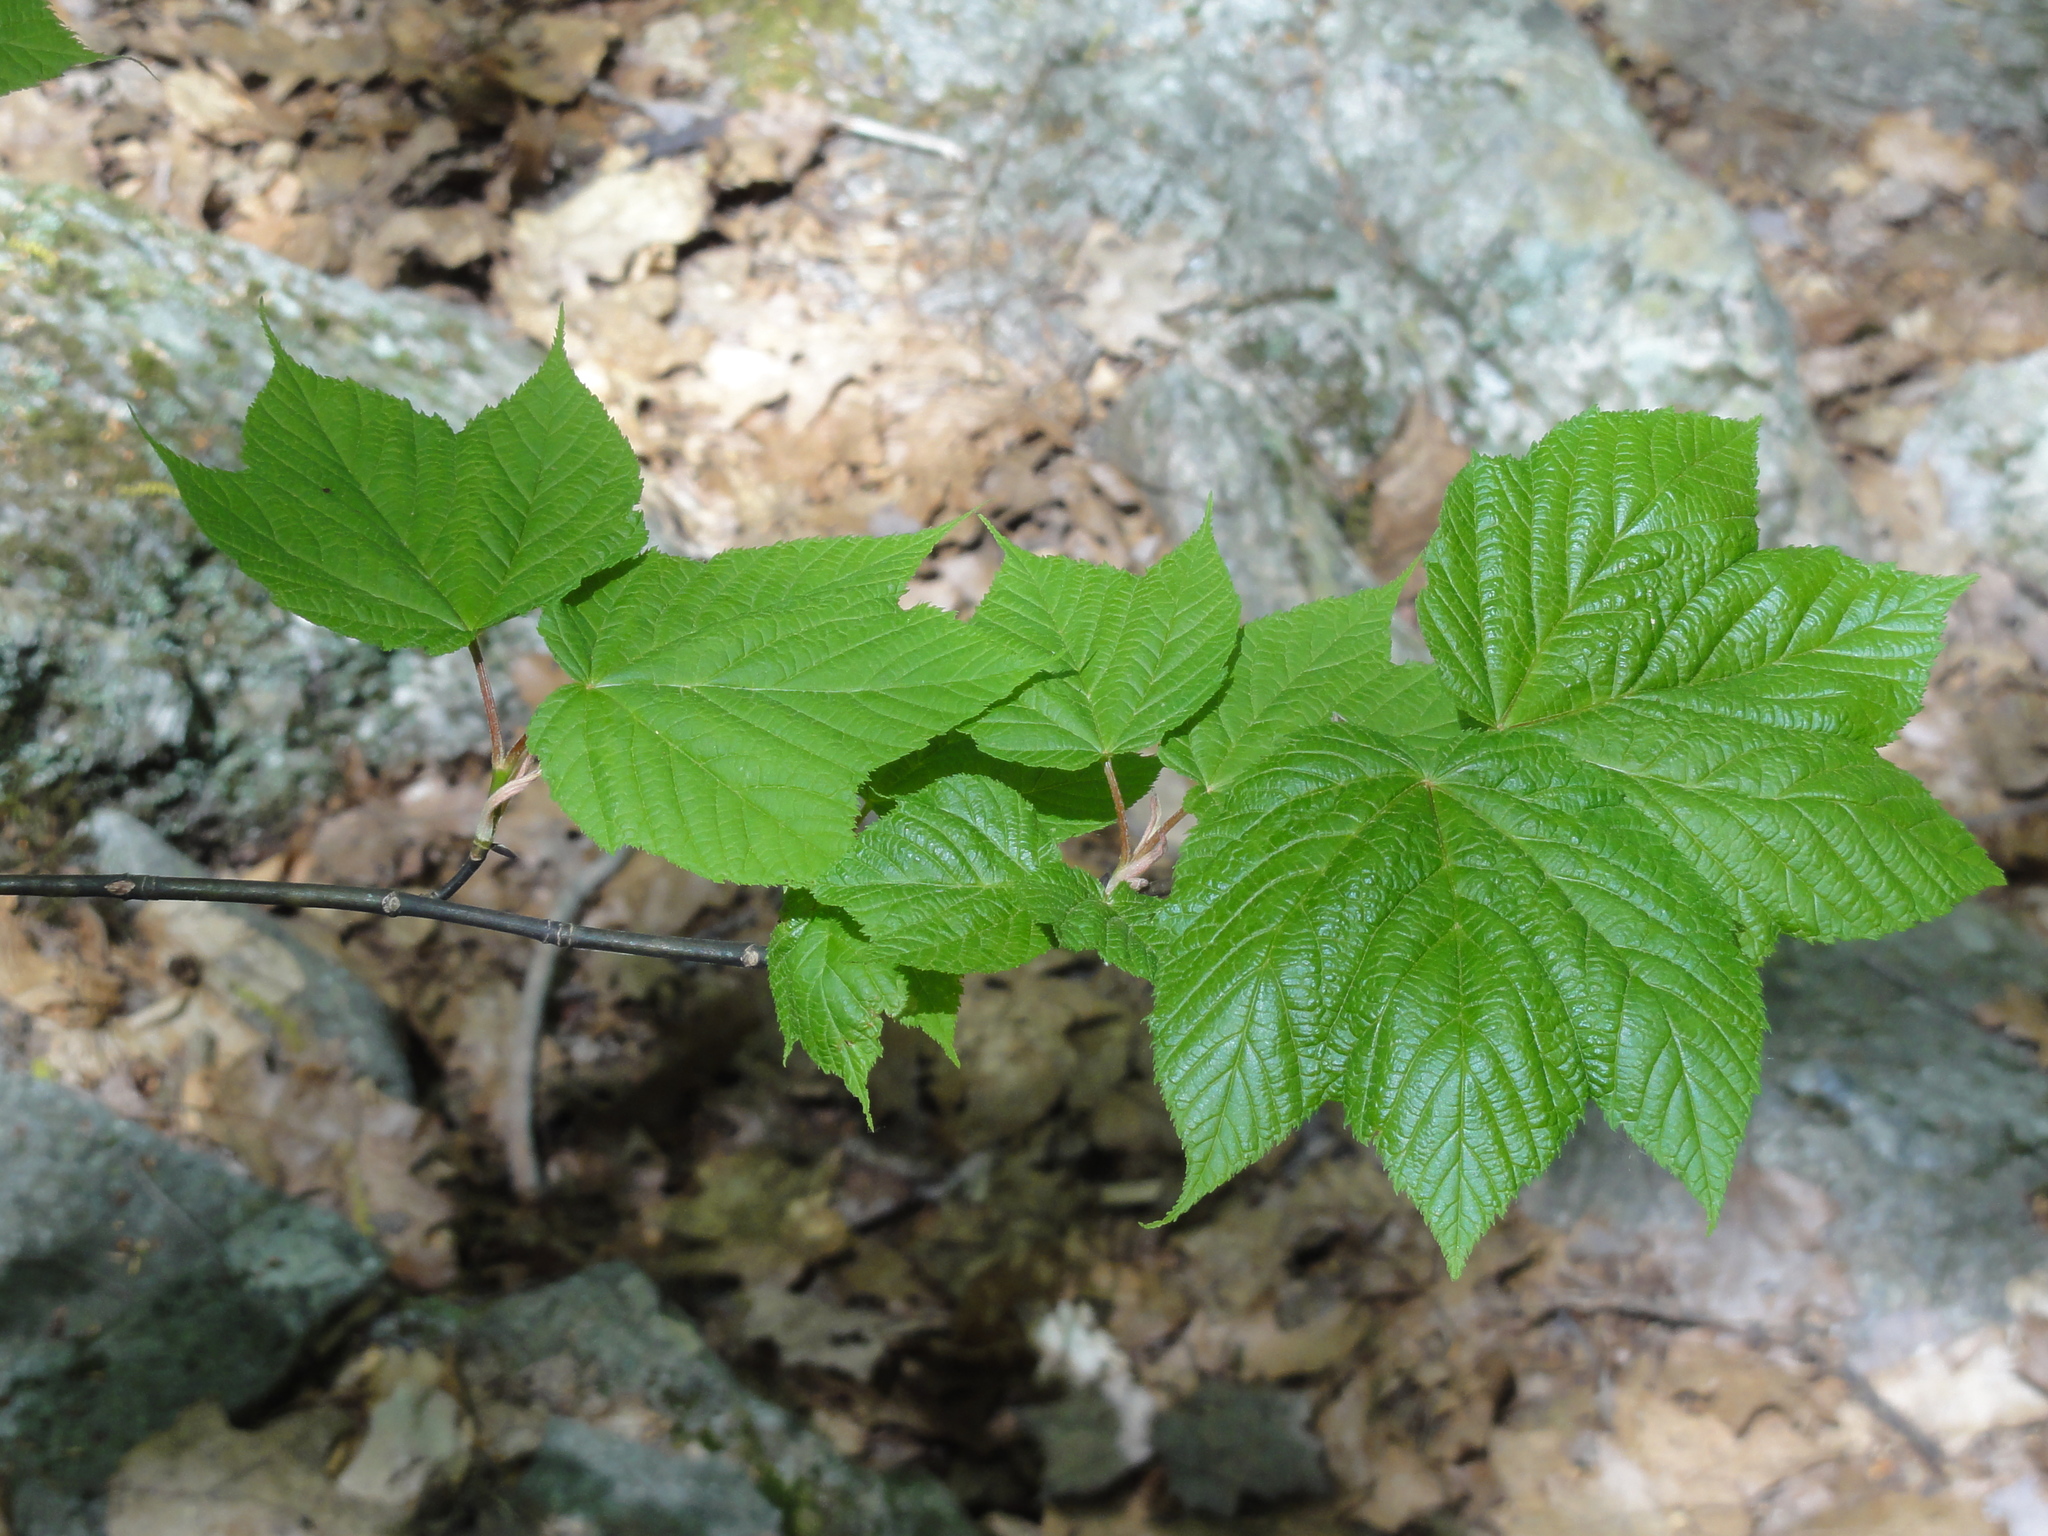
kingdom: Plantae
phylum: Tracheophyta
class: Magnoliopsida
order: Sapindales
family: Sapindaceae
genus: Acer
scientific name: Acer pensylvanicum
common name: Moosewood
